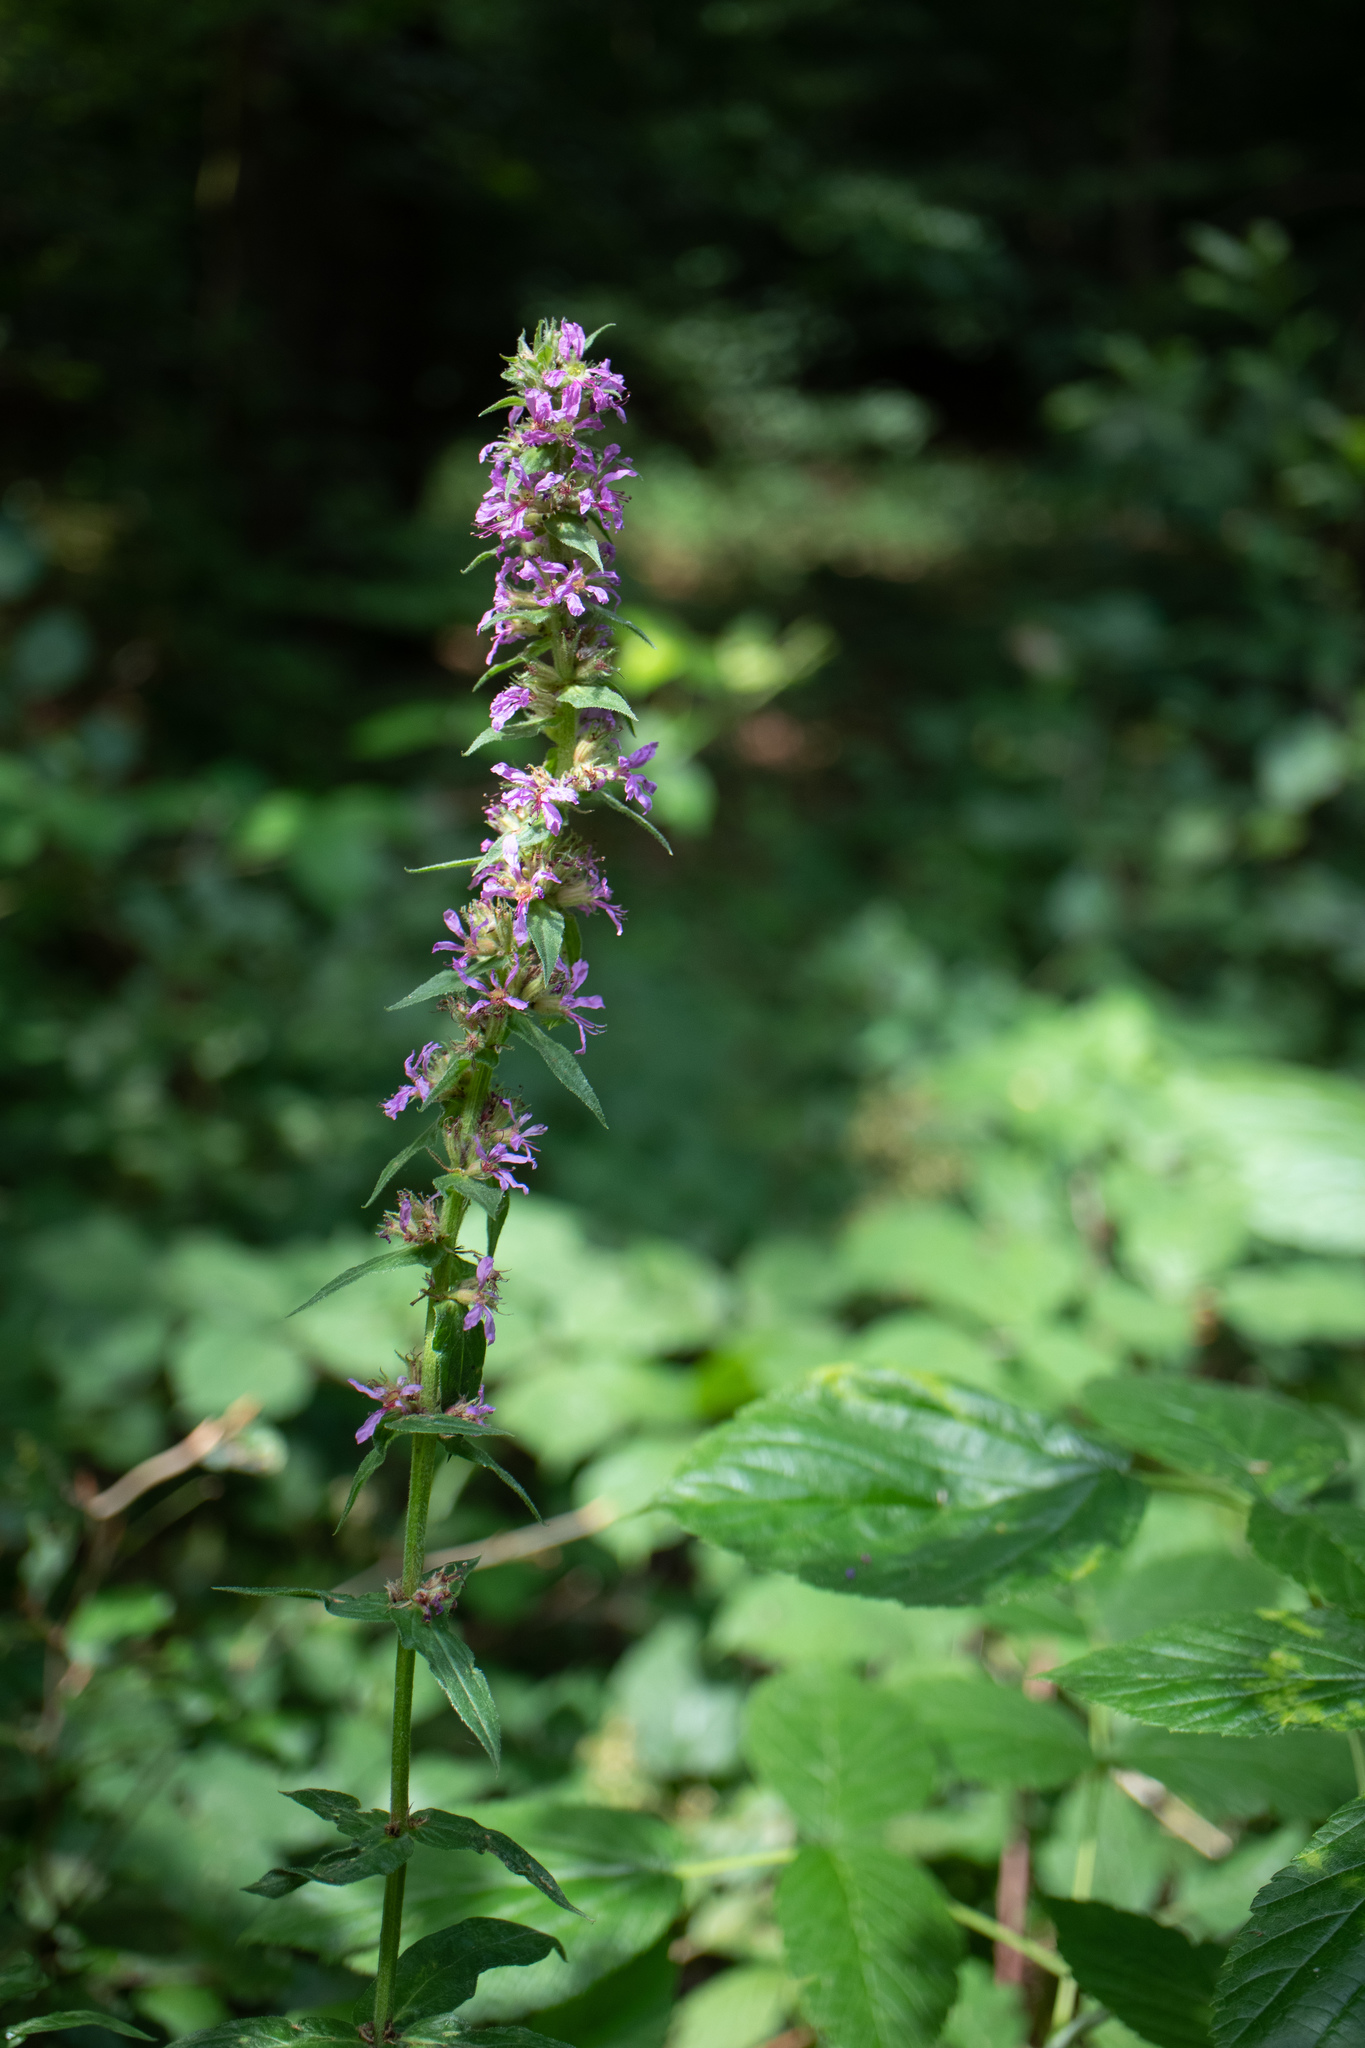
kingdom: Plantae
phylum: Tracheophyta
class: Magnoliopsida
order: Myrtales
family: Lythraceae
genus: Lythrum
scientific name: Lythrum salicaria
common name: Purple loosestrife
